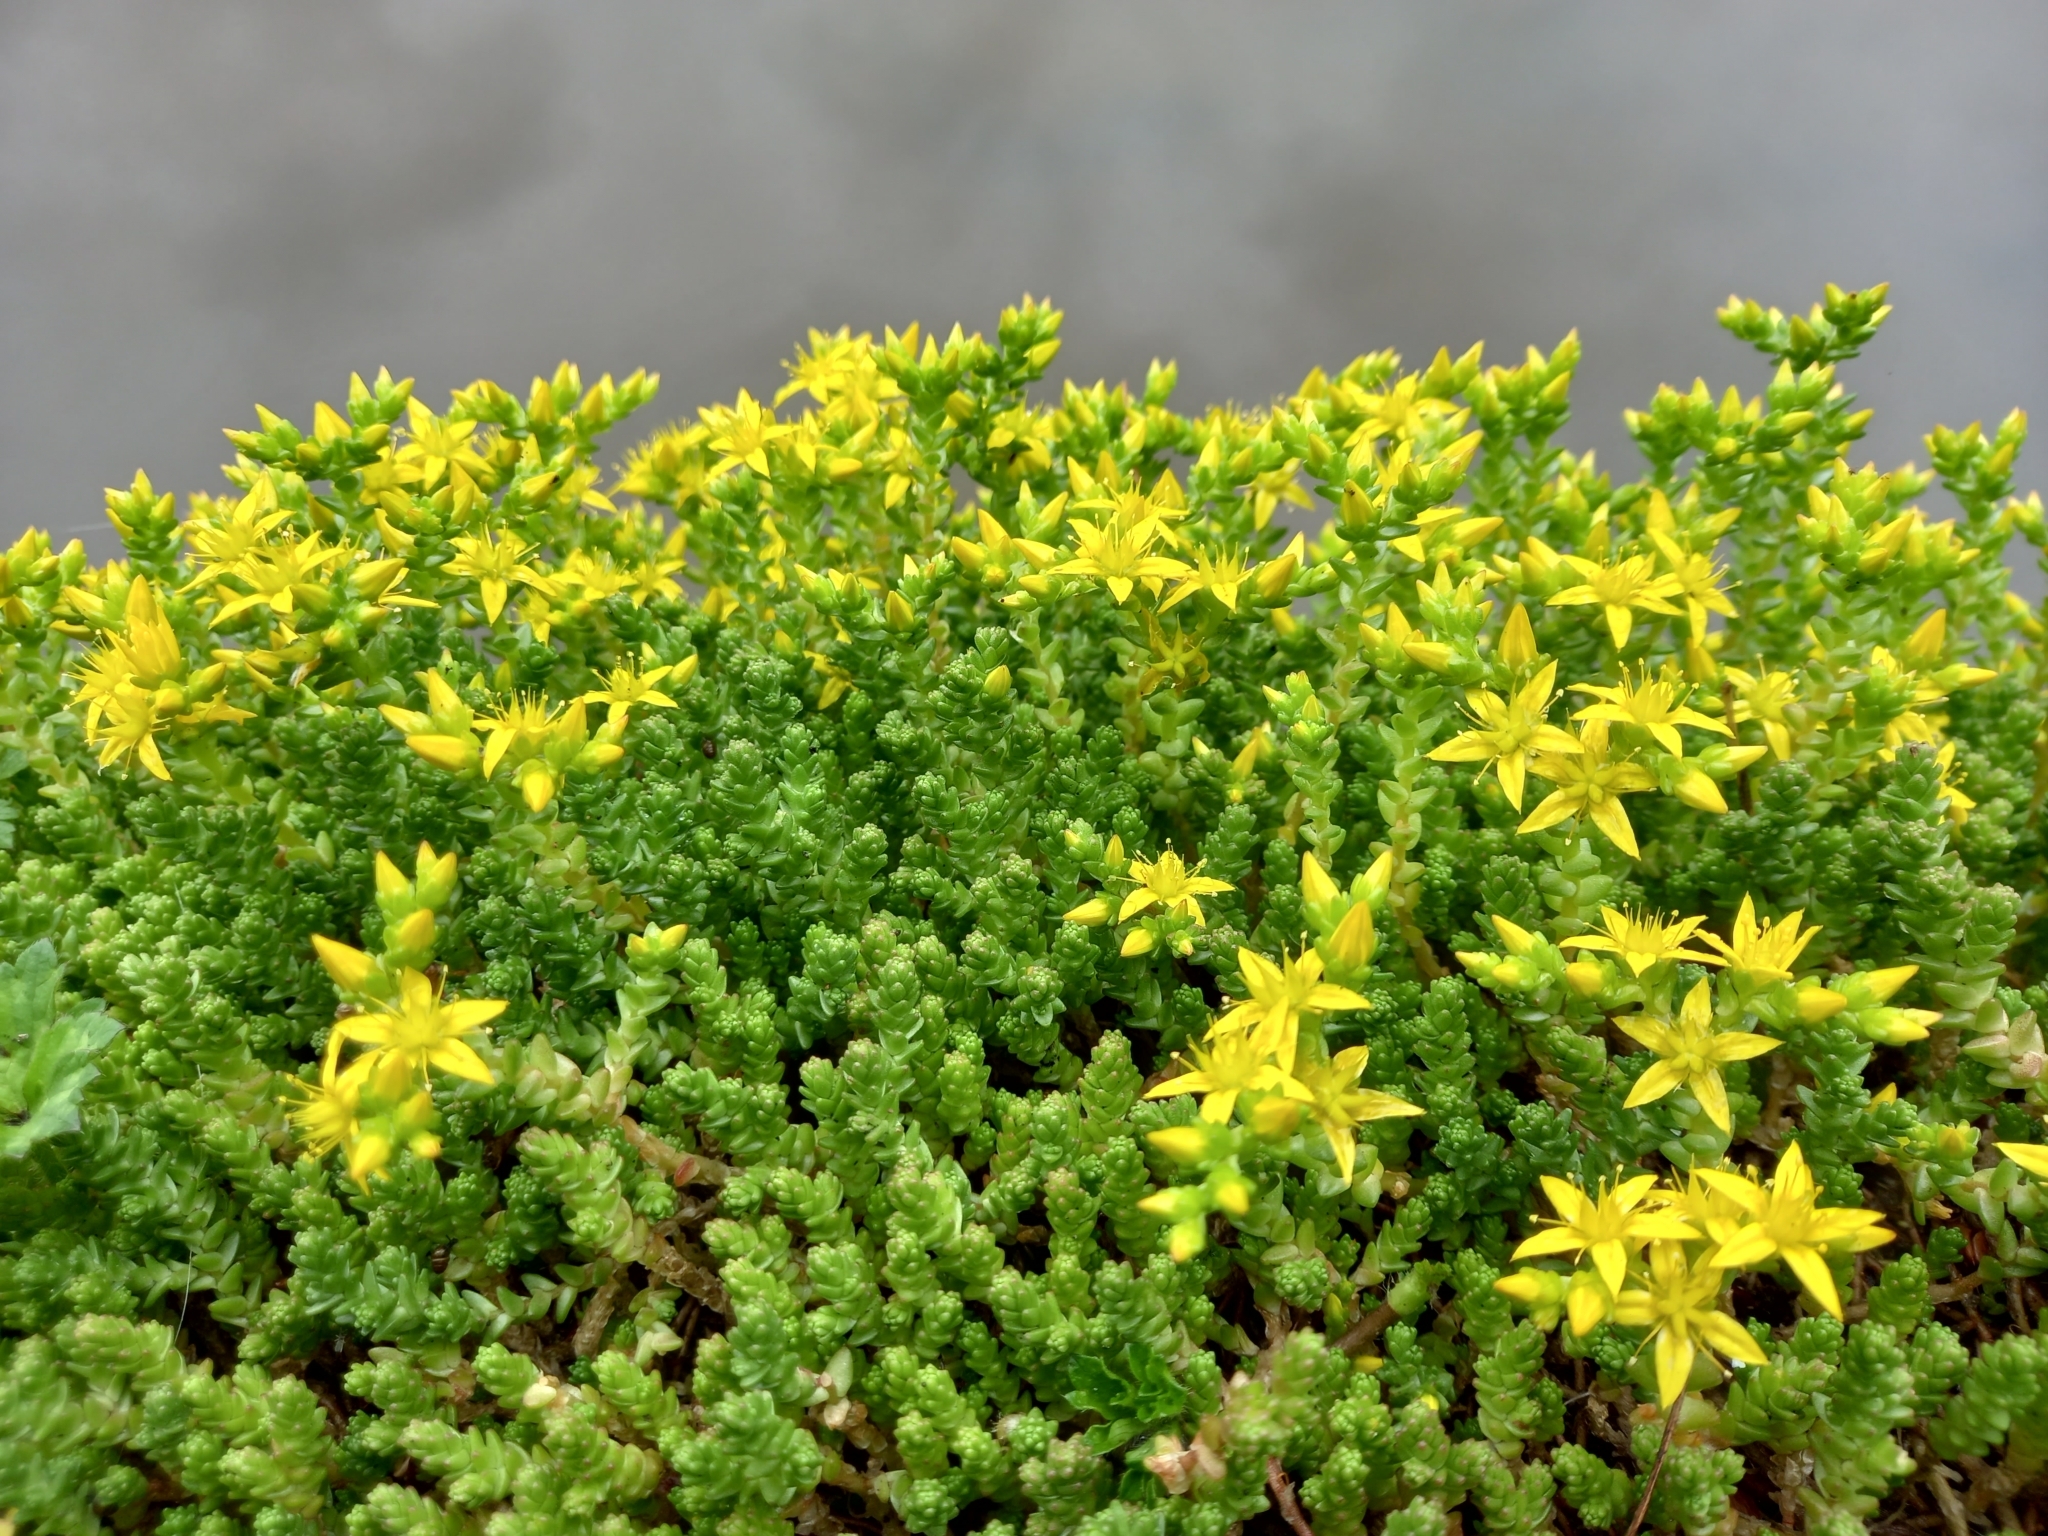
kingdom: Plantae
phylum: Tracheophyta
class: Magnoliopsida
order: Saxifragales
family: Crassulaceae
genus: Sedum
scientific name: Sedum acre
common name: Biting stonecrop
